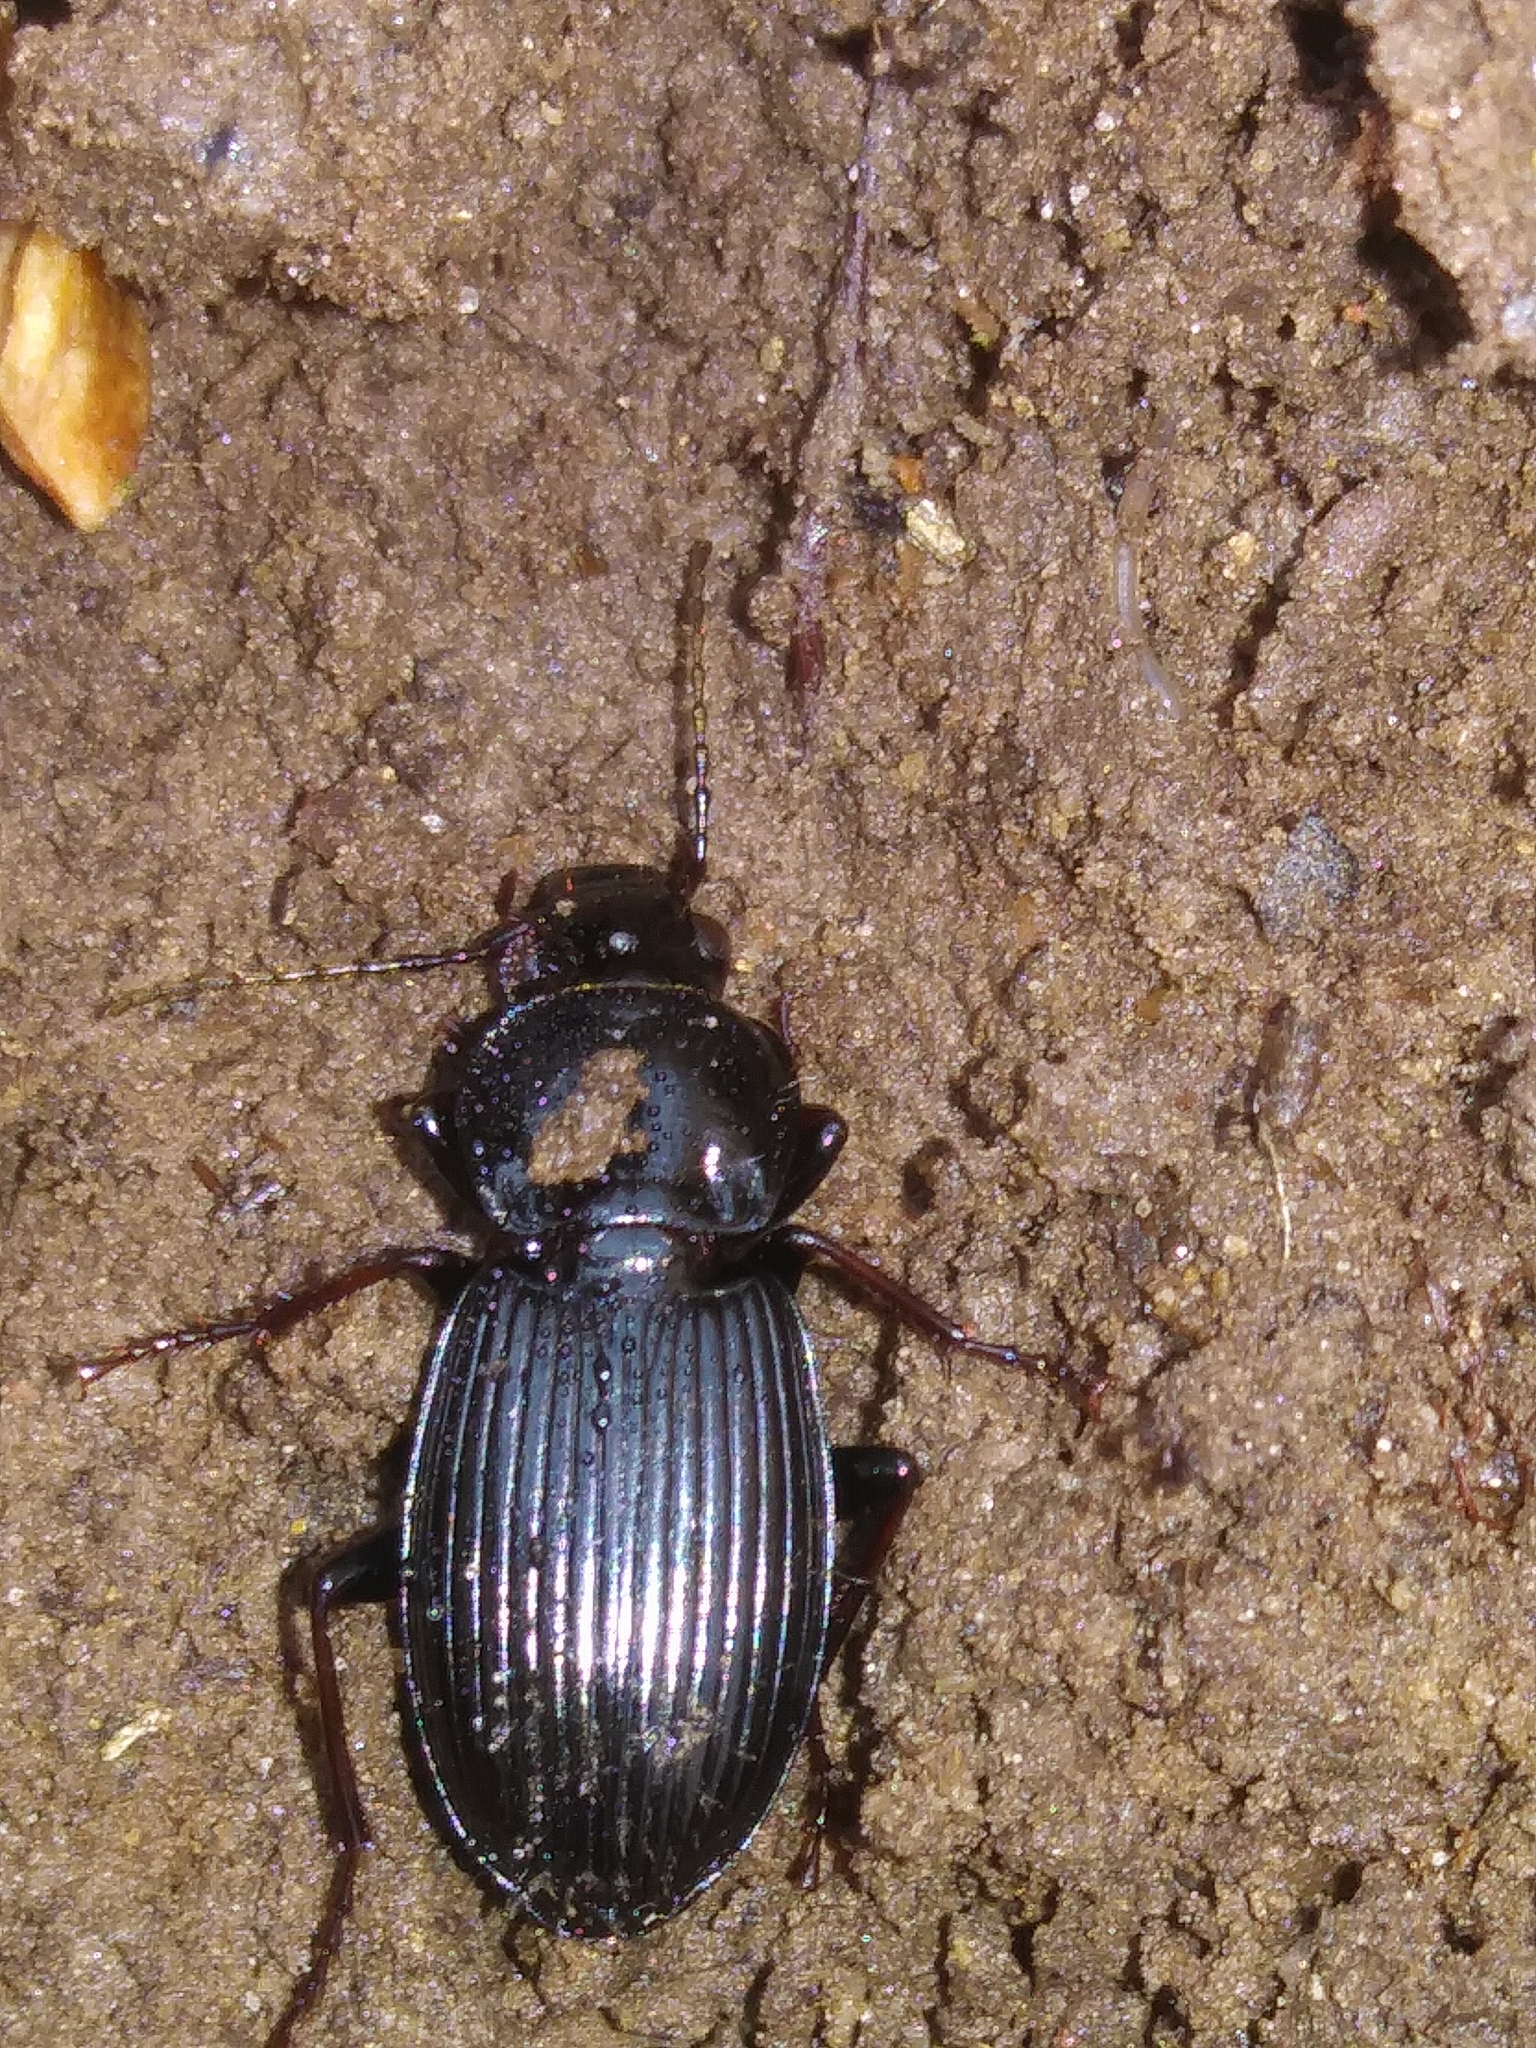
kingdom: Animalia
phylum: Arthropoda
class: Insecta
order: Coleoptera
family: Carabidae
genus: Pterostichus
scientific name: Pterostichus stygicus
